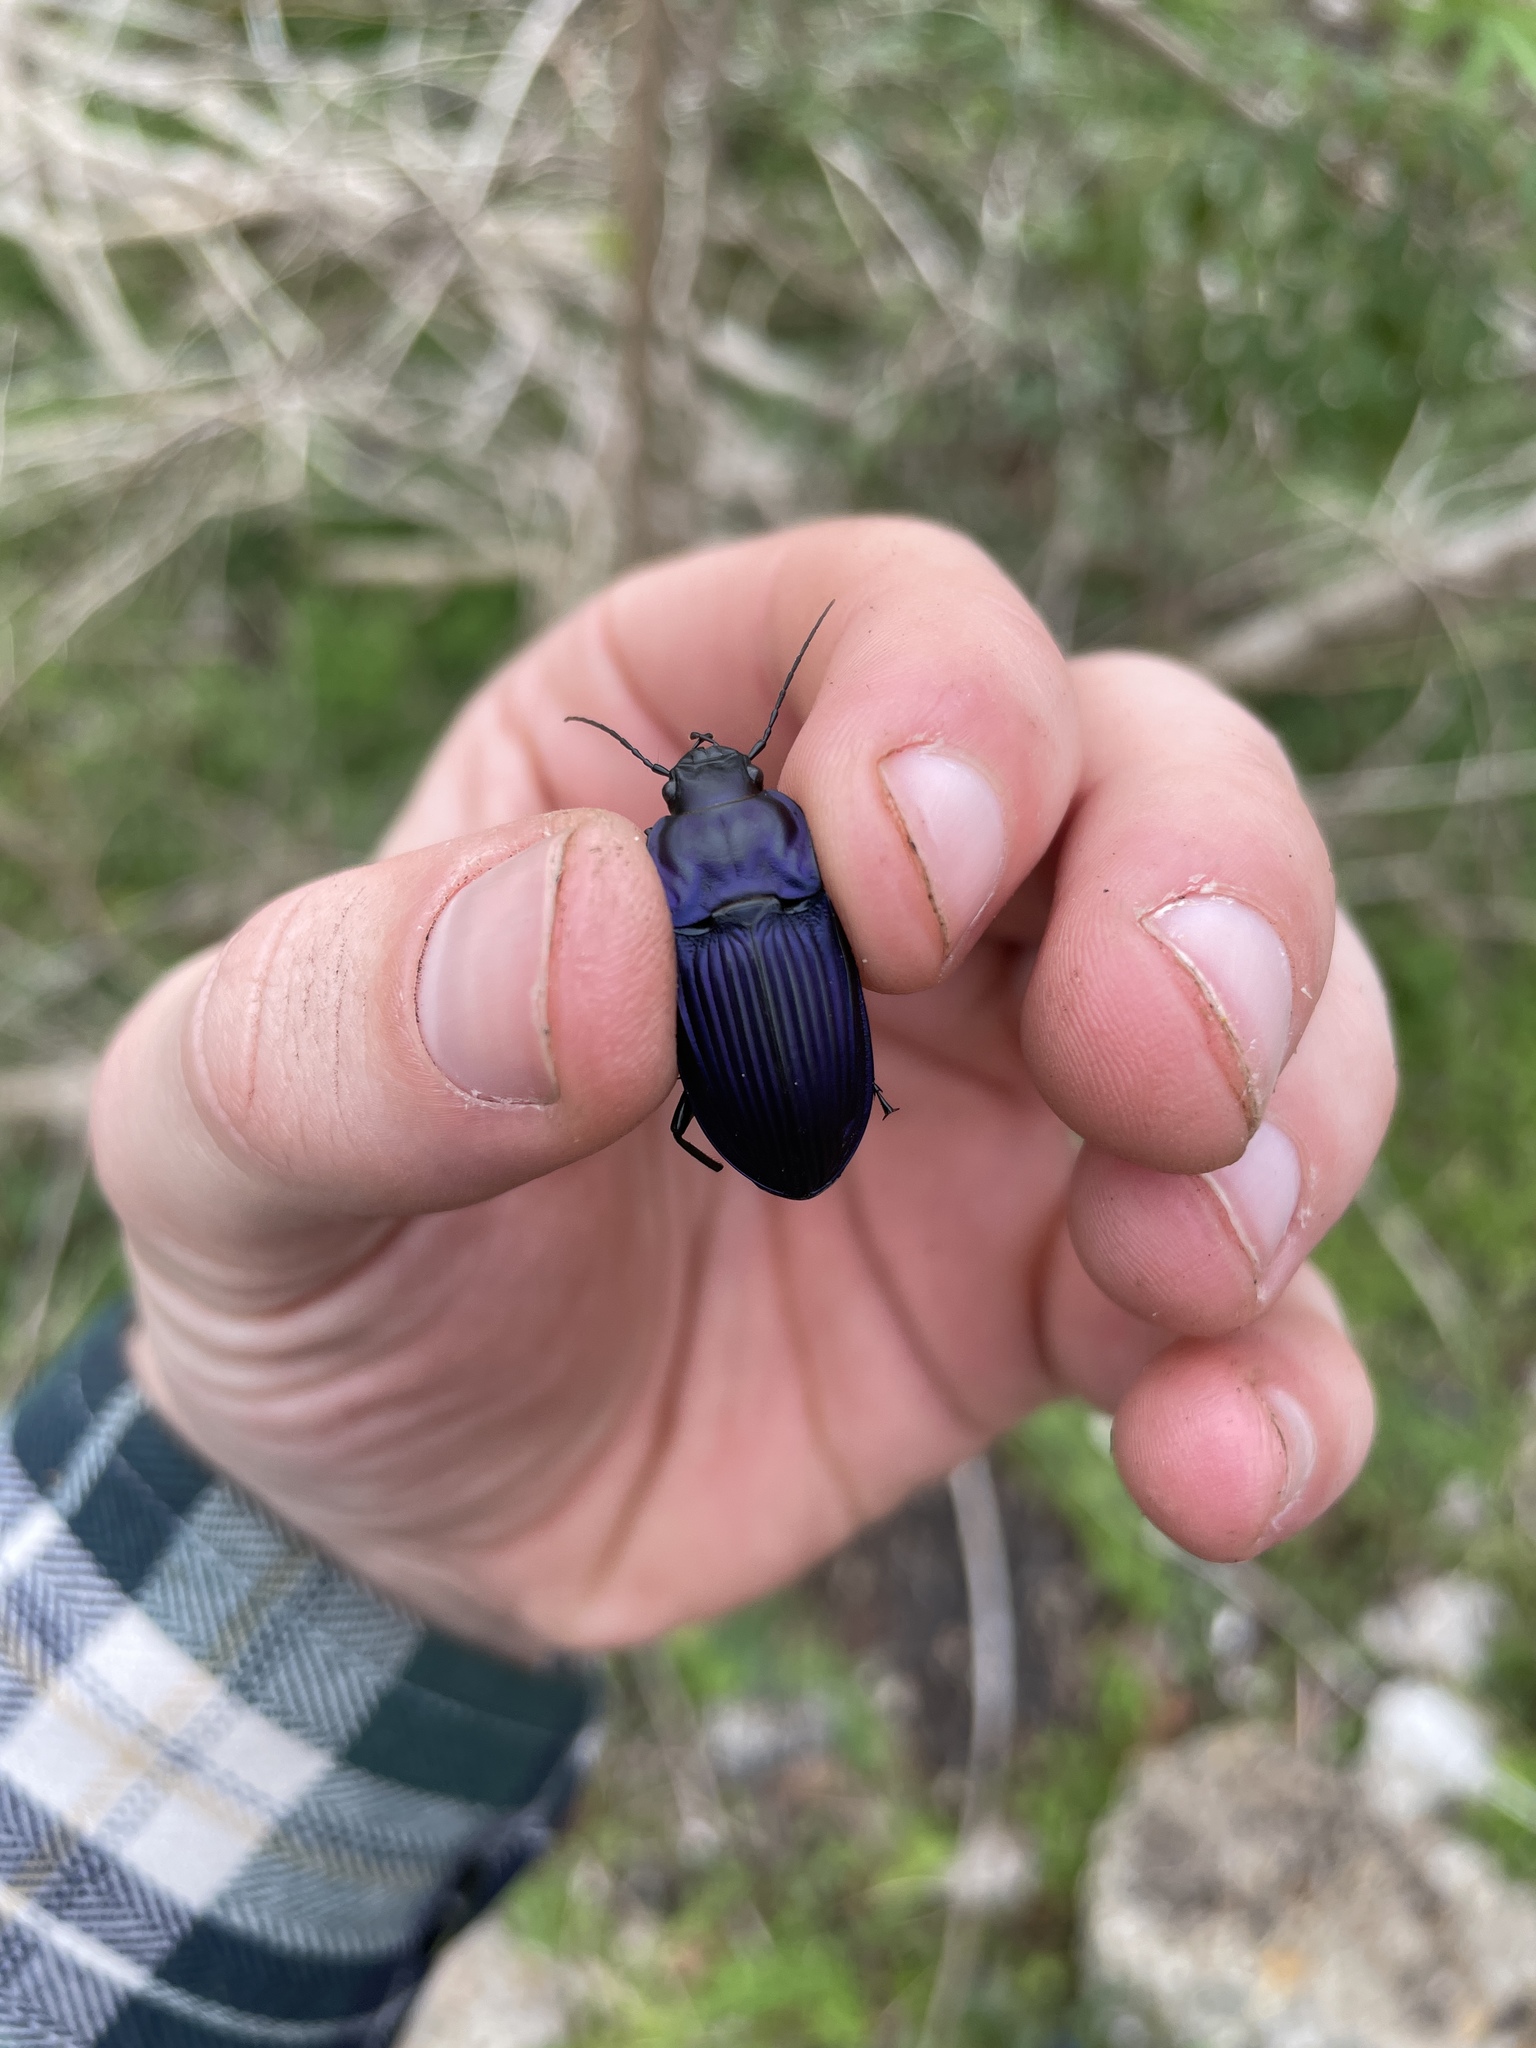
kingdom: Animalia
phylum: Arthropoda
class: Insecta
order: Coleoptera
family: Carabidae
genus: Dicaelus
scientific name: Dicaelus purpuratus
